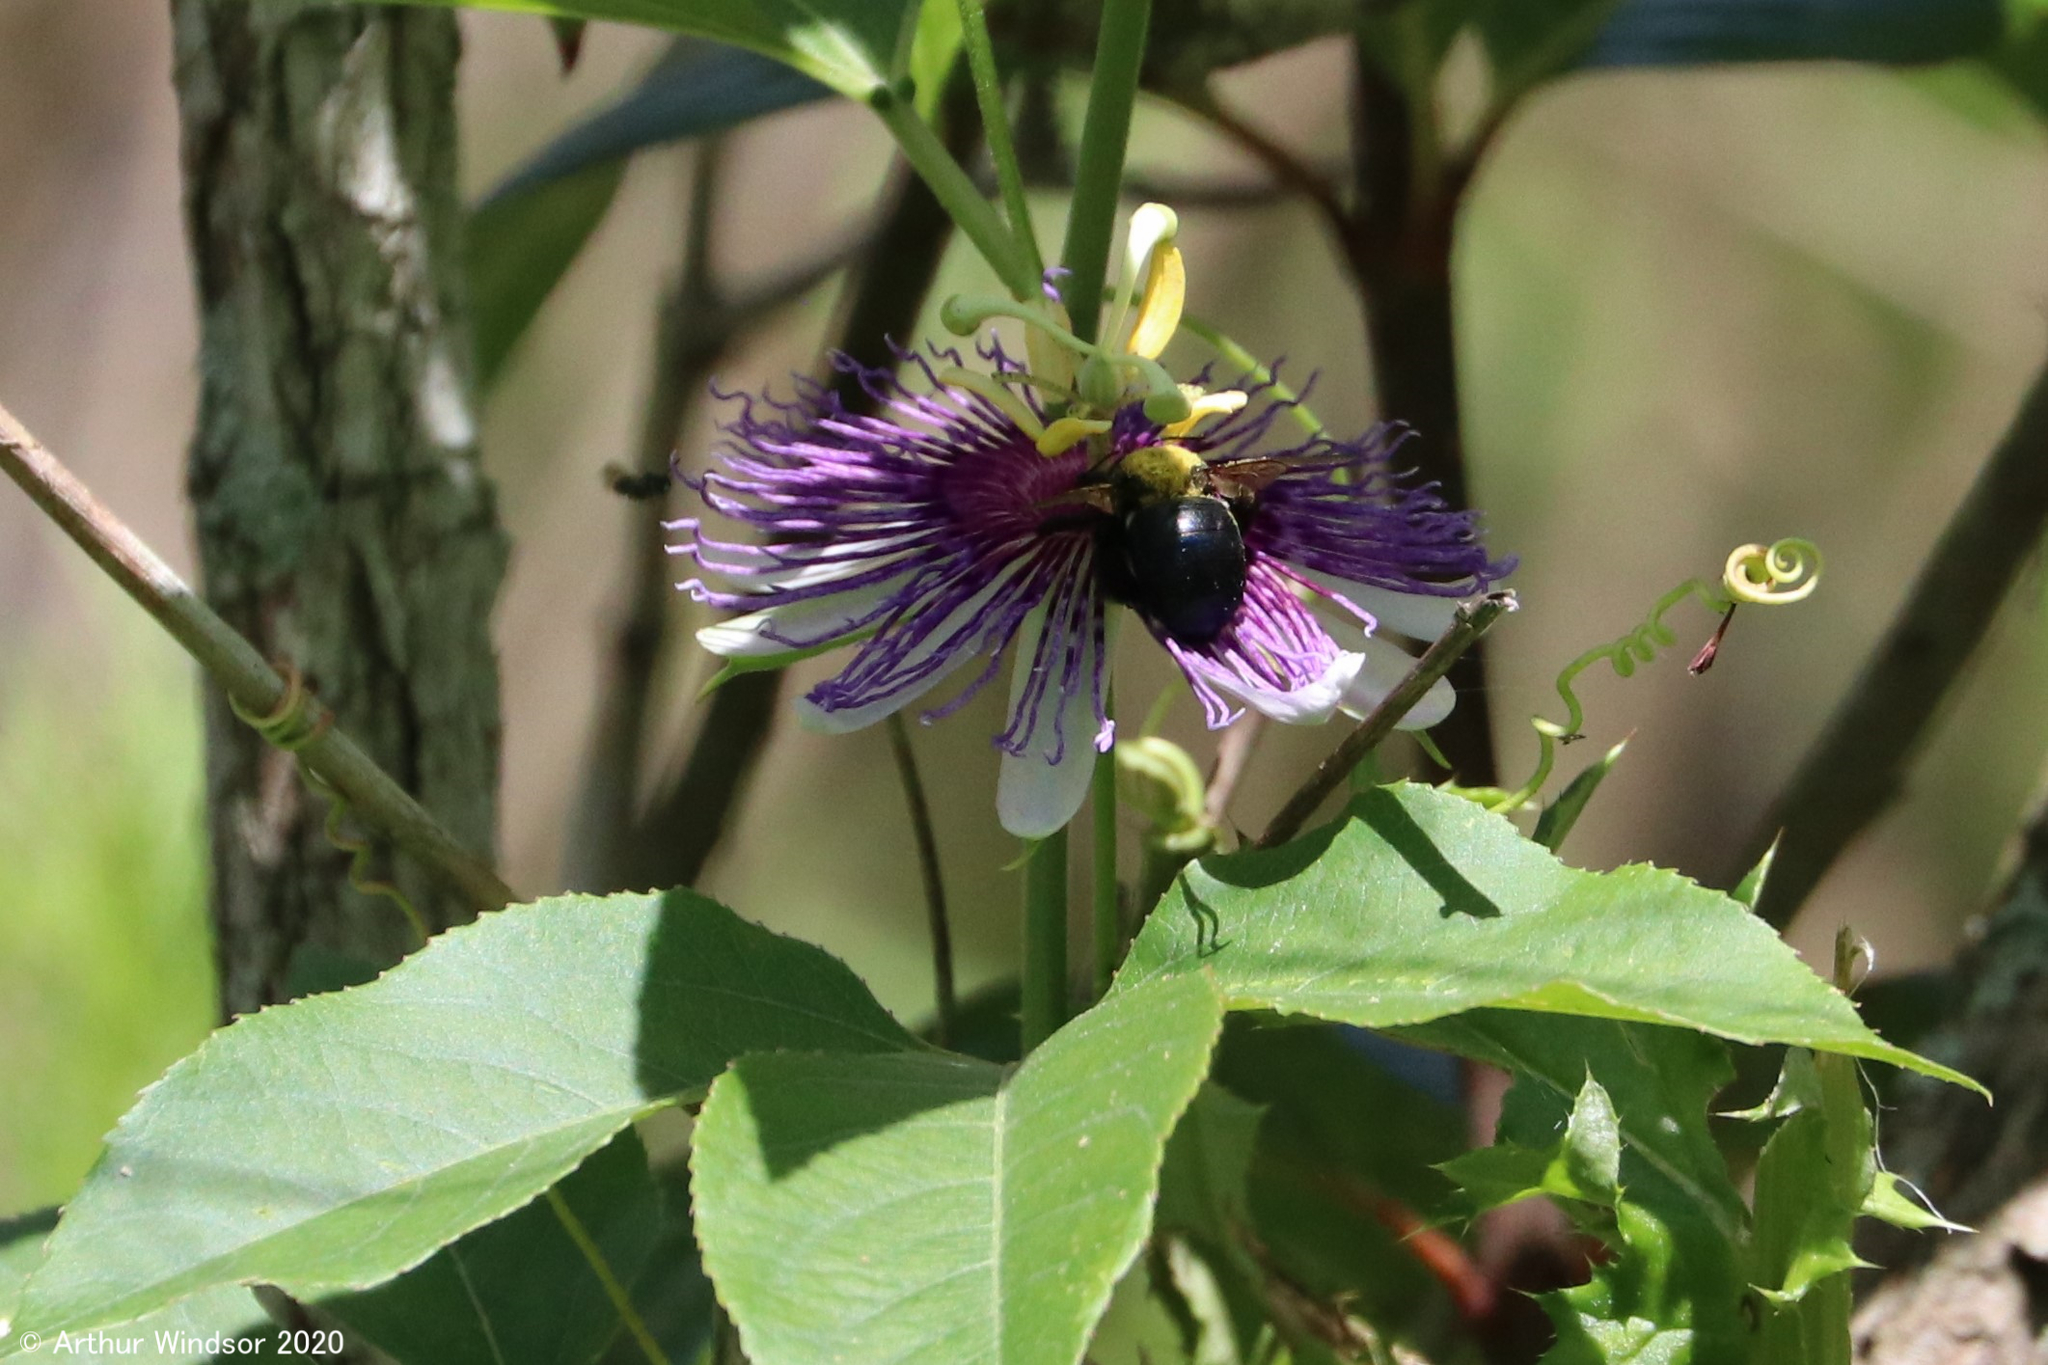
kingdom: Animalia
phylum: Arthropoda
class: Insecta
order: Hymenoptera
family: Apidae
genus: Xylocopa
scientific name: Xylocopa micans
